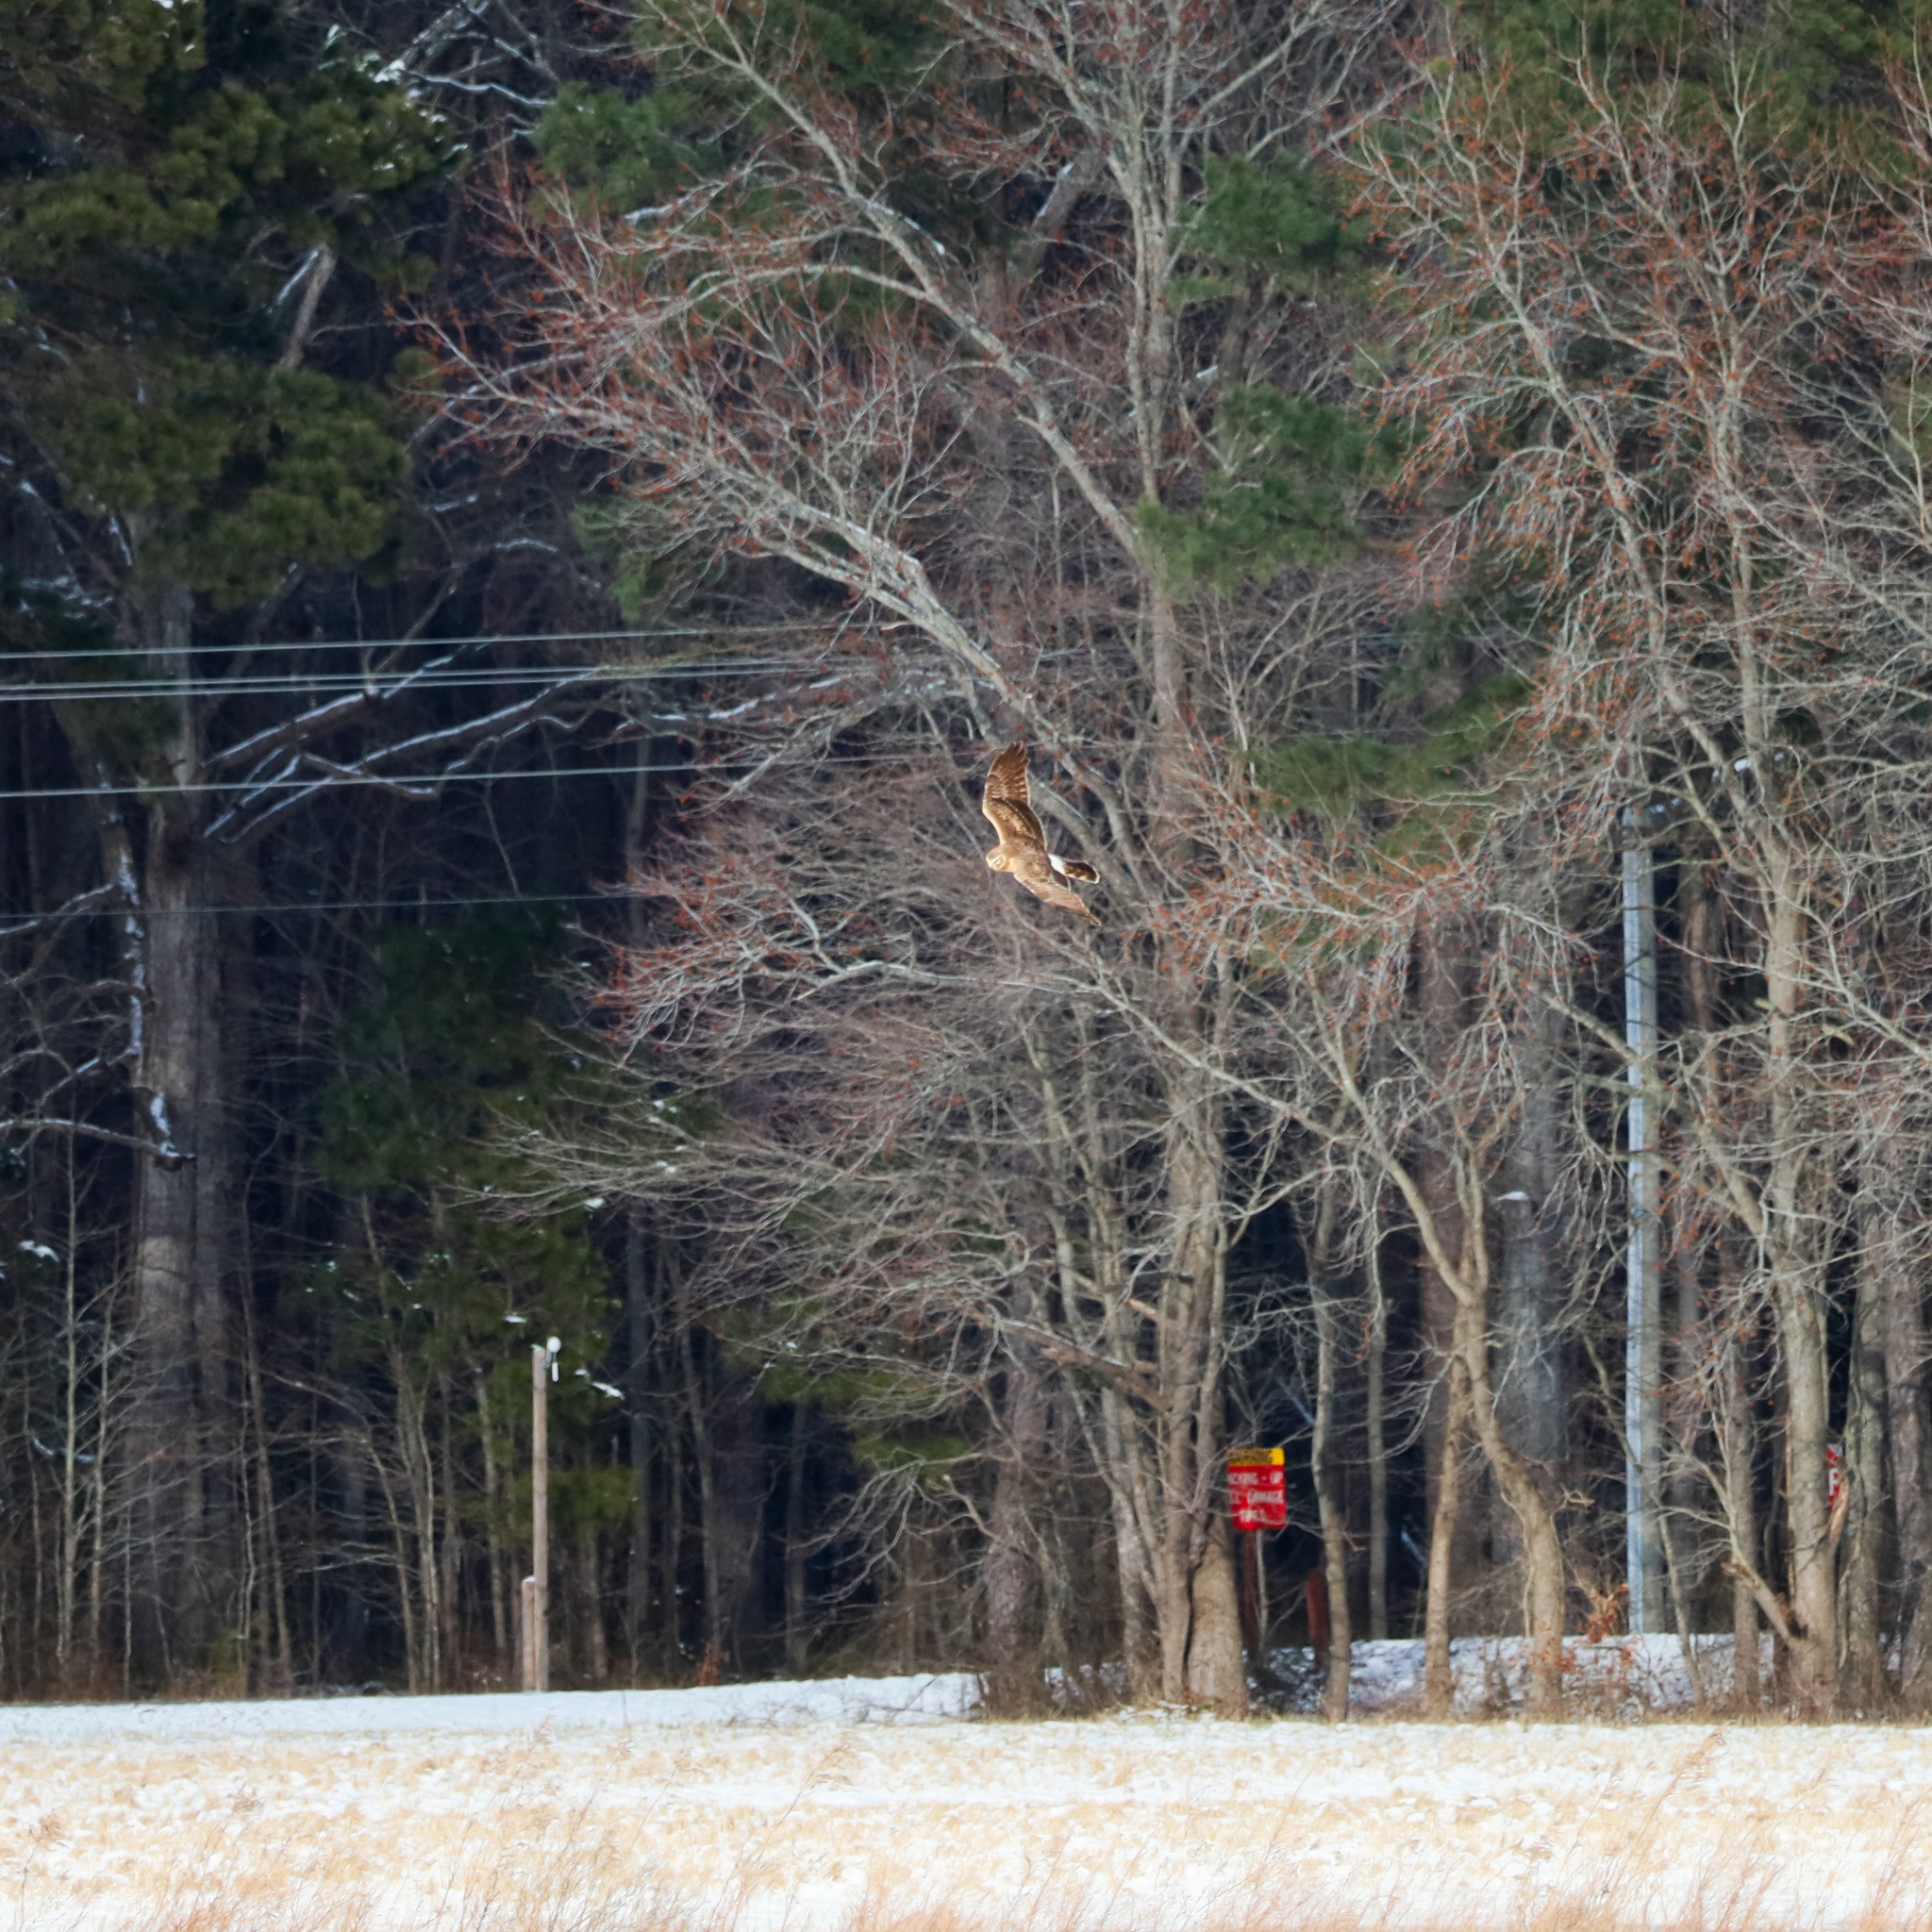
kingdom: Animalia
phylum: Chordata
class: Aves
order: Accipitriformes
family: Accipitridae
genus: Circus
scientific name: Circus cyaneus
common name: Hen harrier
